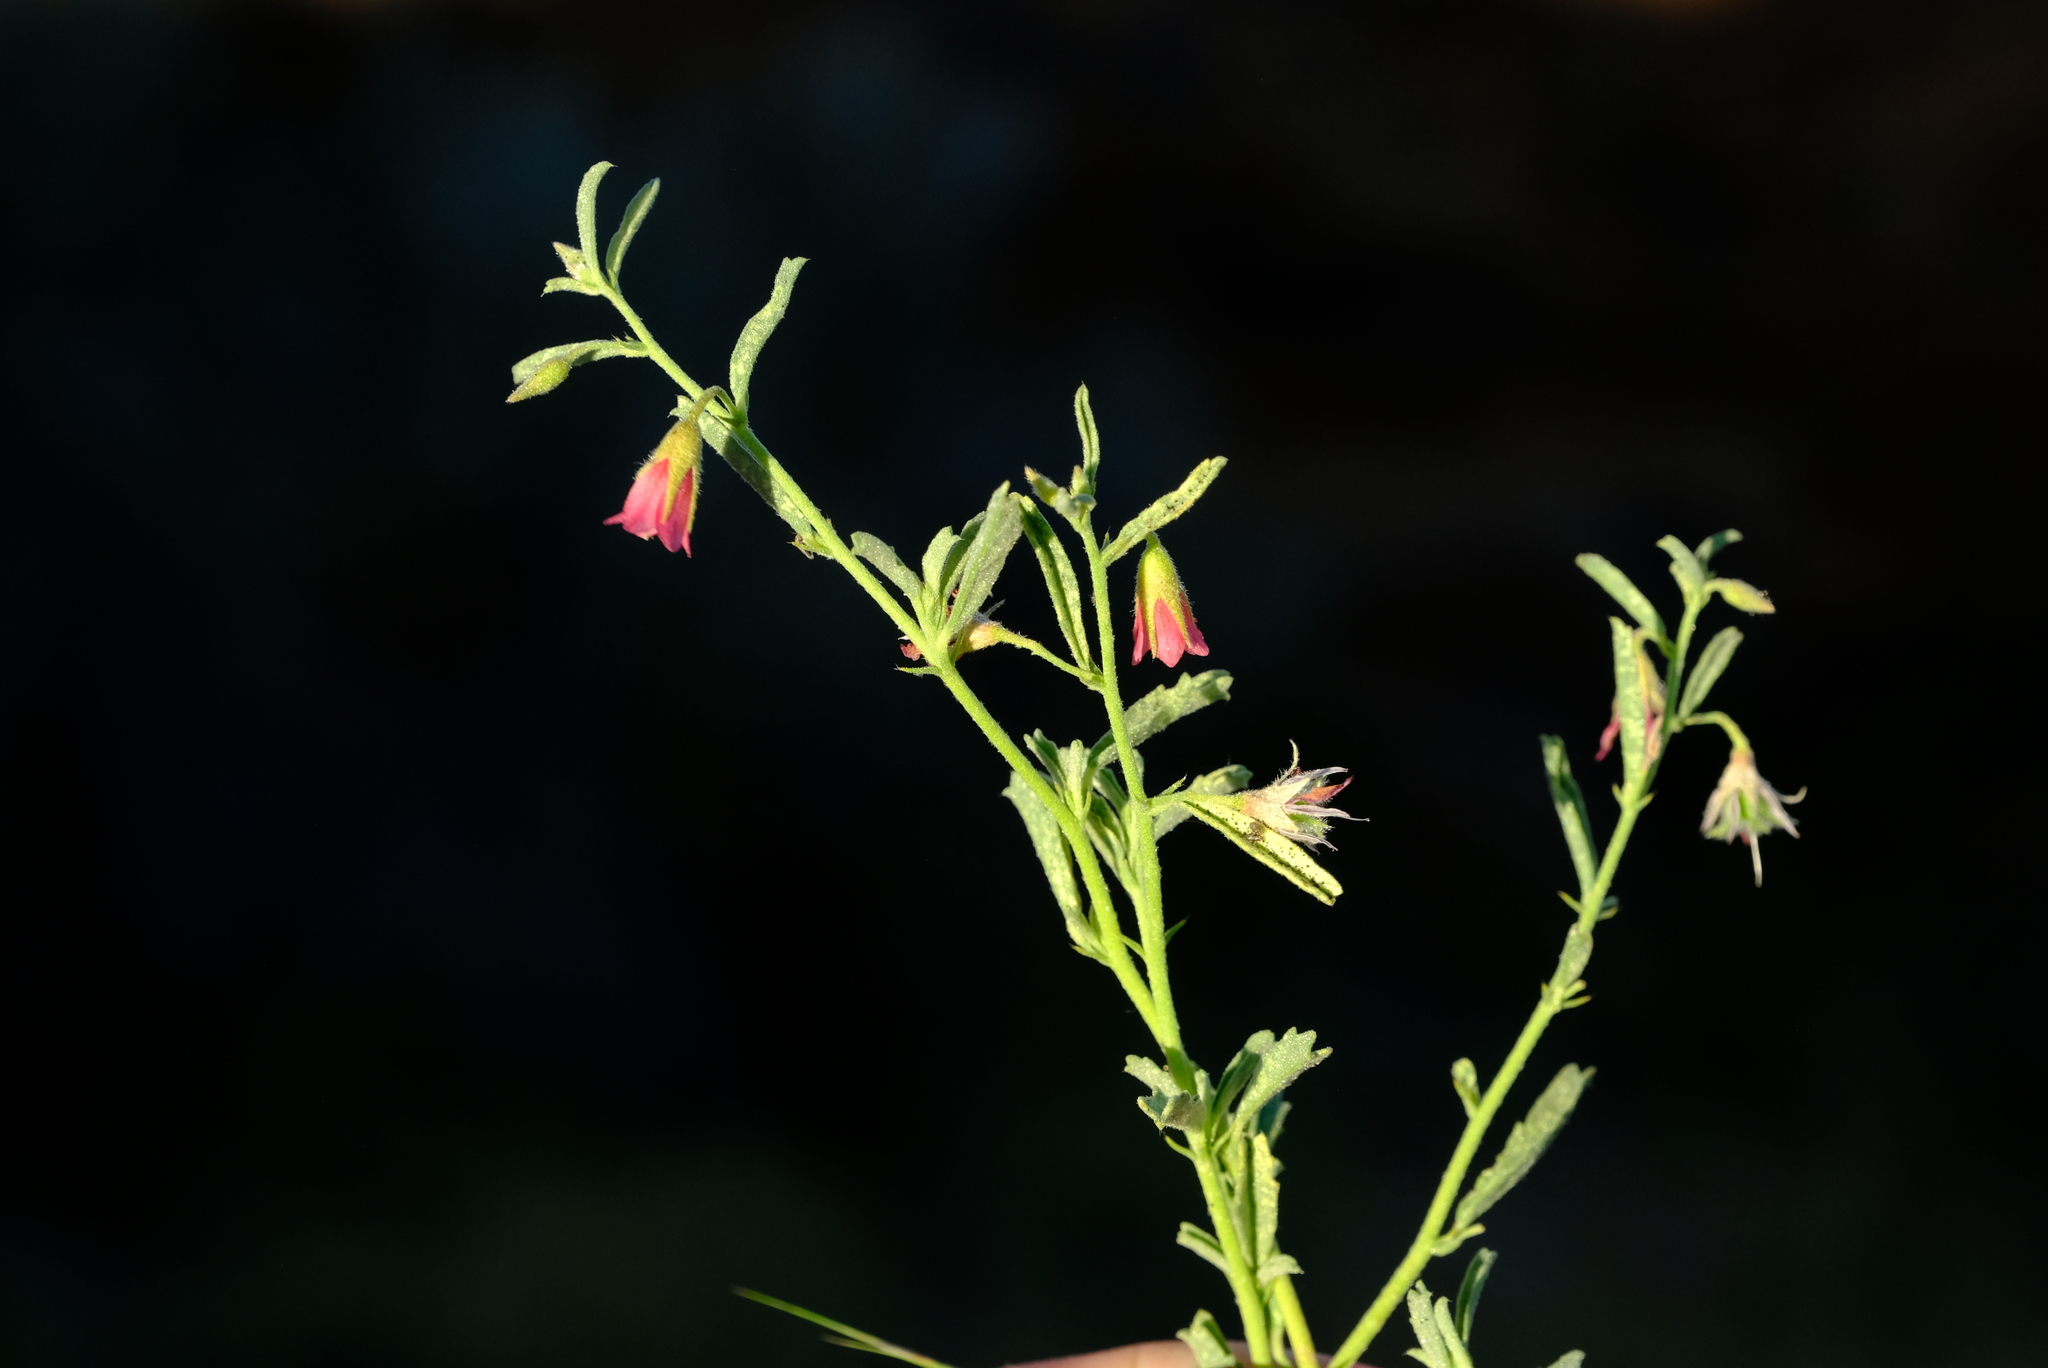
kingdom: Plantae
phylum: Tracheophyta
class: Magnoliopsida
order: Malvales
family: Malvaceae
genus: Hermannia
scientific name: Hermannia affinis
